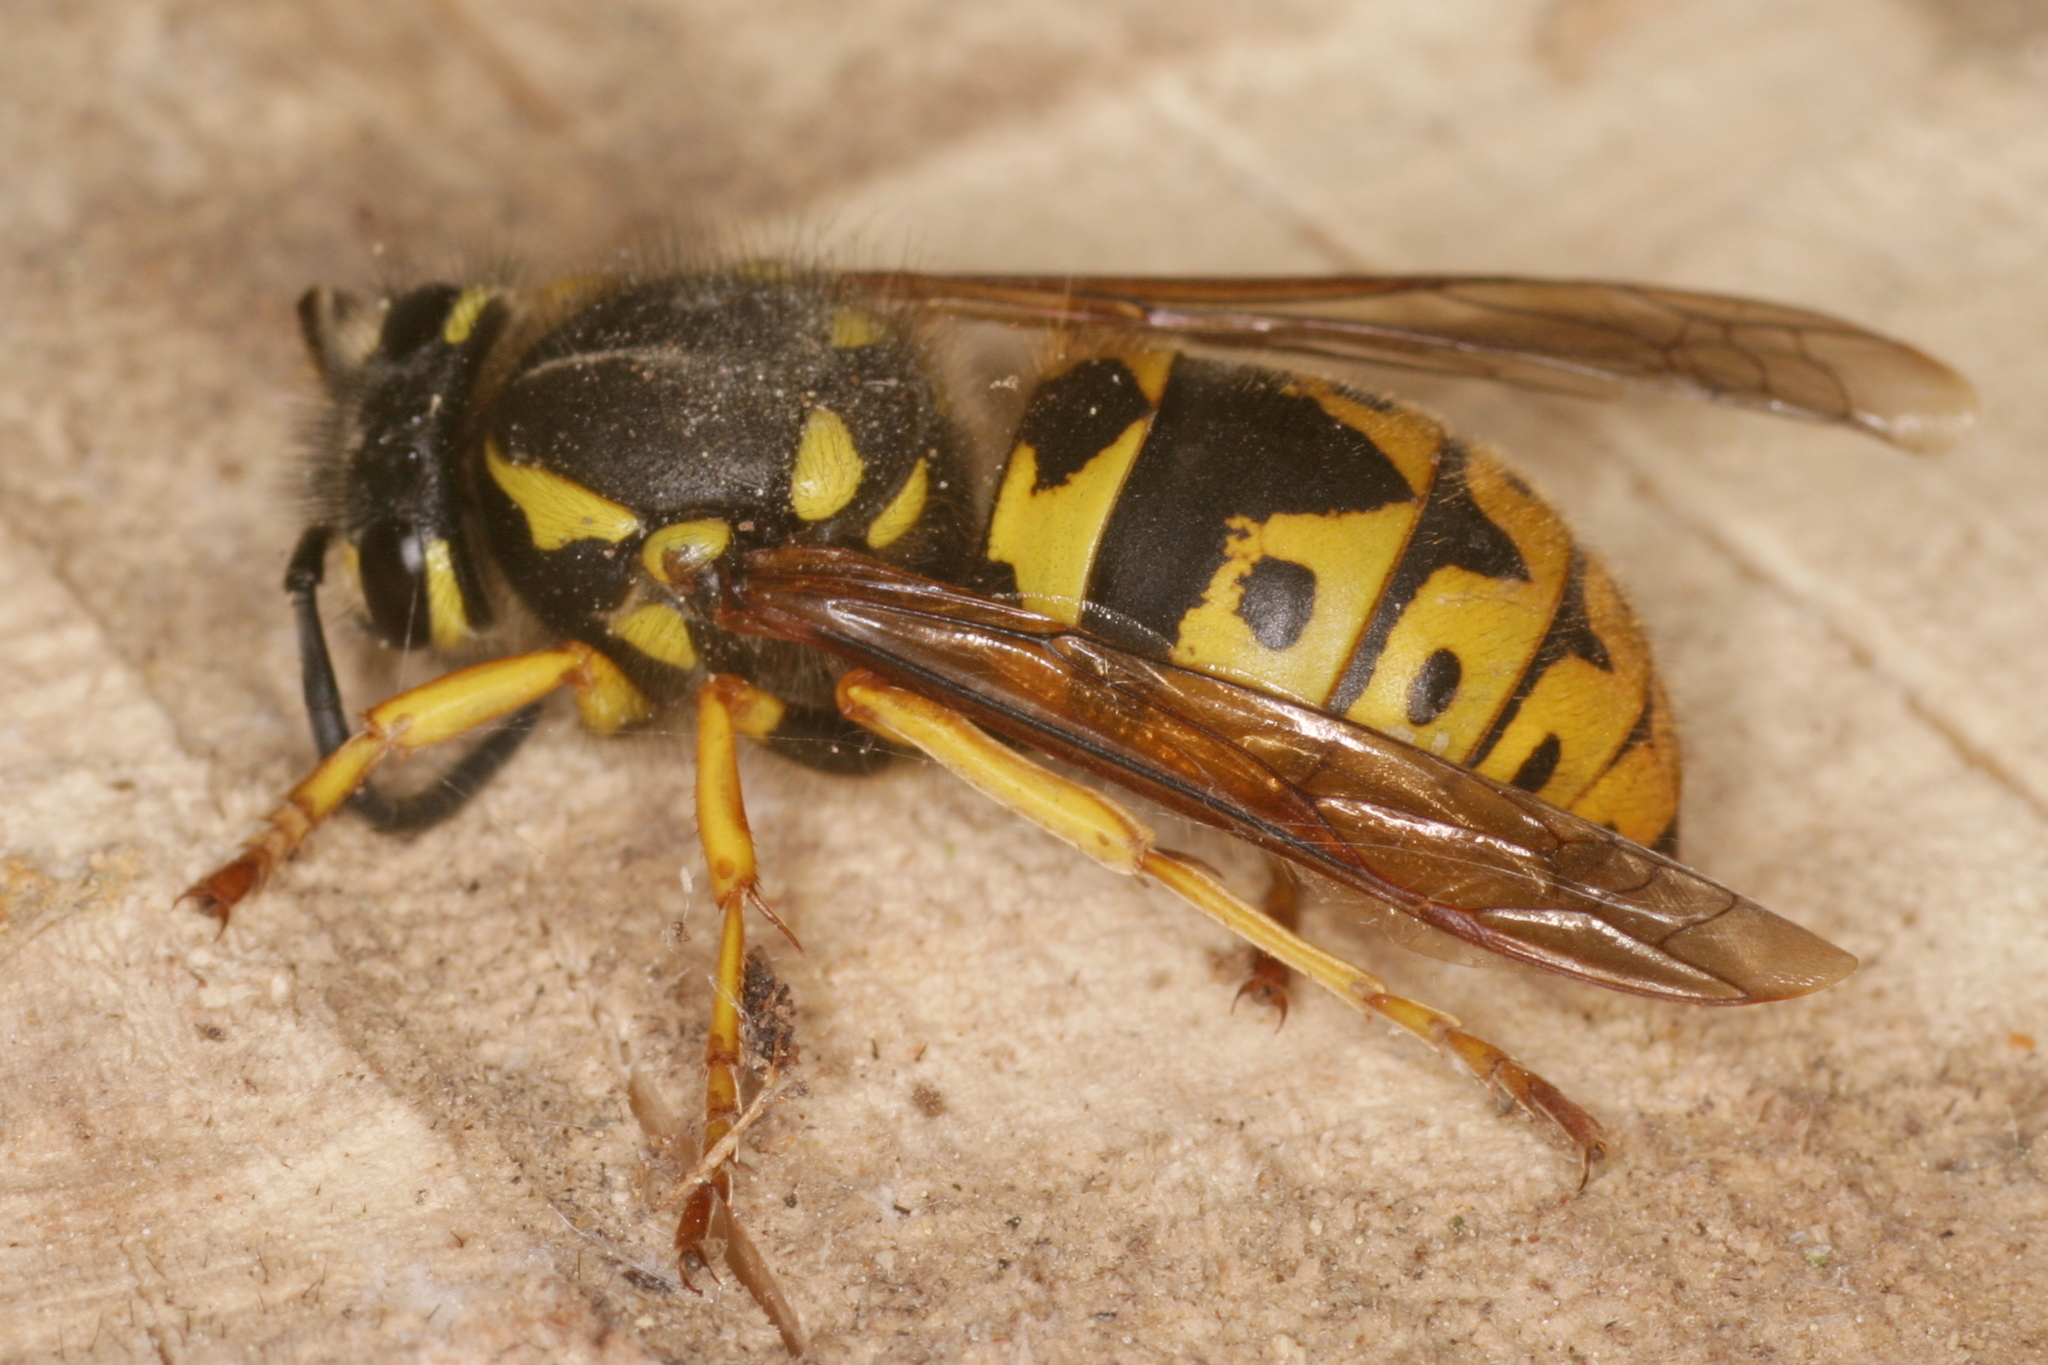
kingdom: Animalia
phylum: Arthropoda
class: Insecta
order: Hymenoptera
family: Vespidae
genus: Vespula
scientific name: Vespula germanica
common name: German wasp
